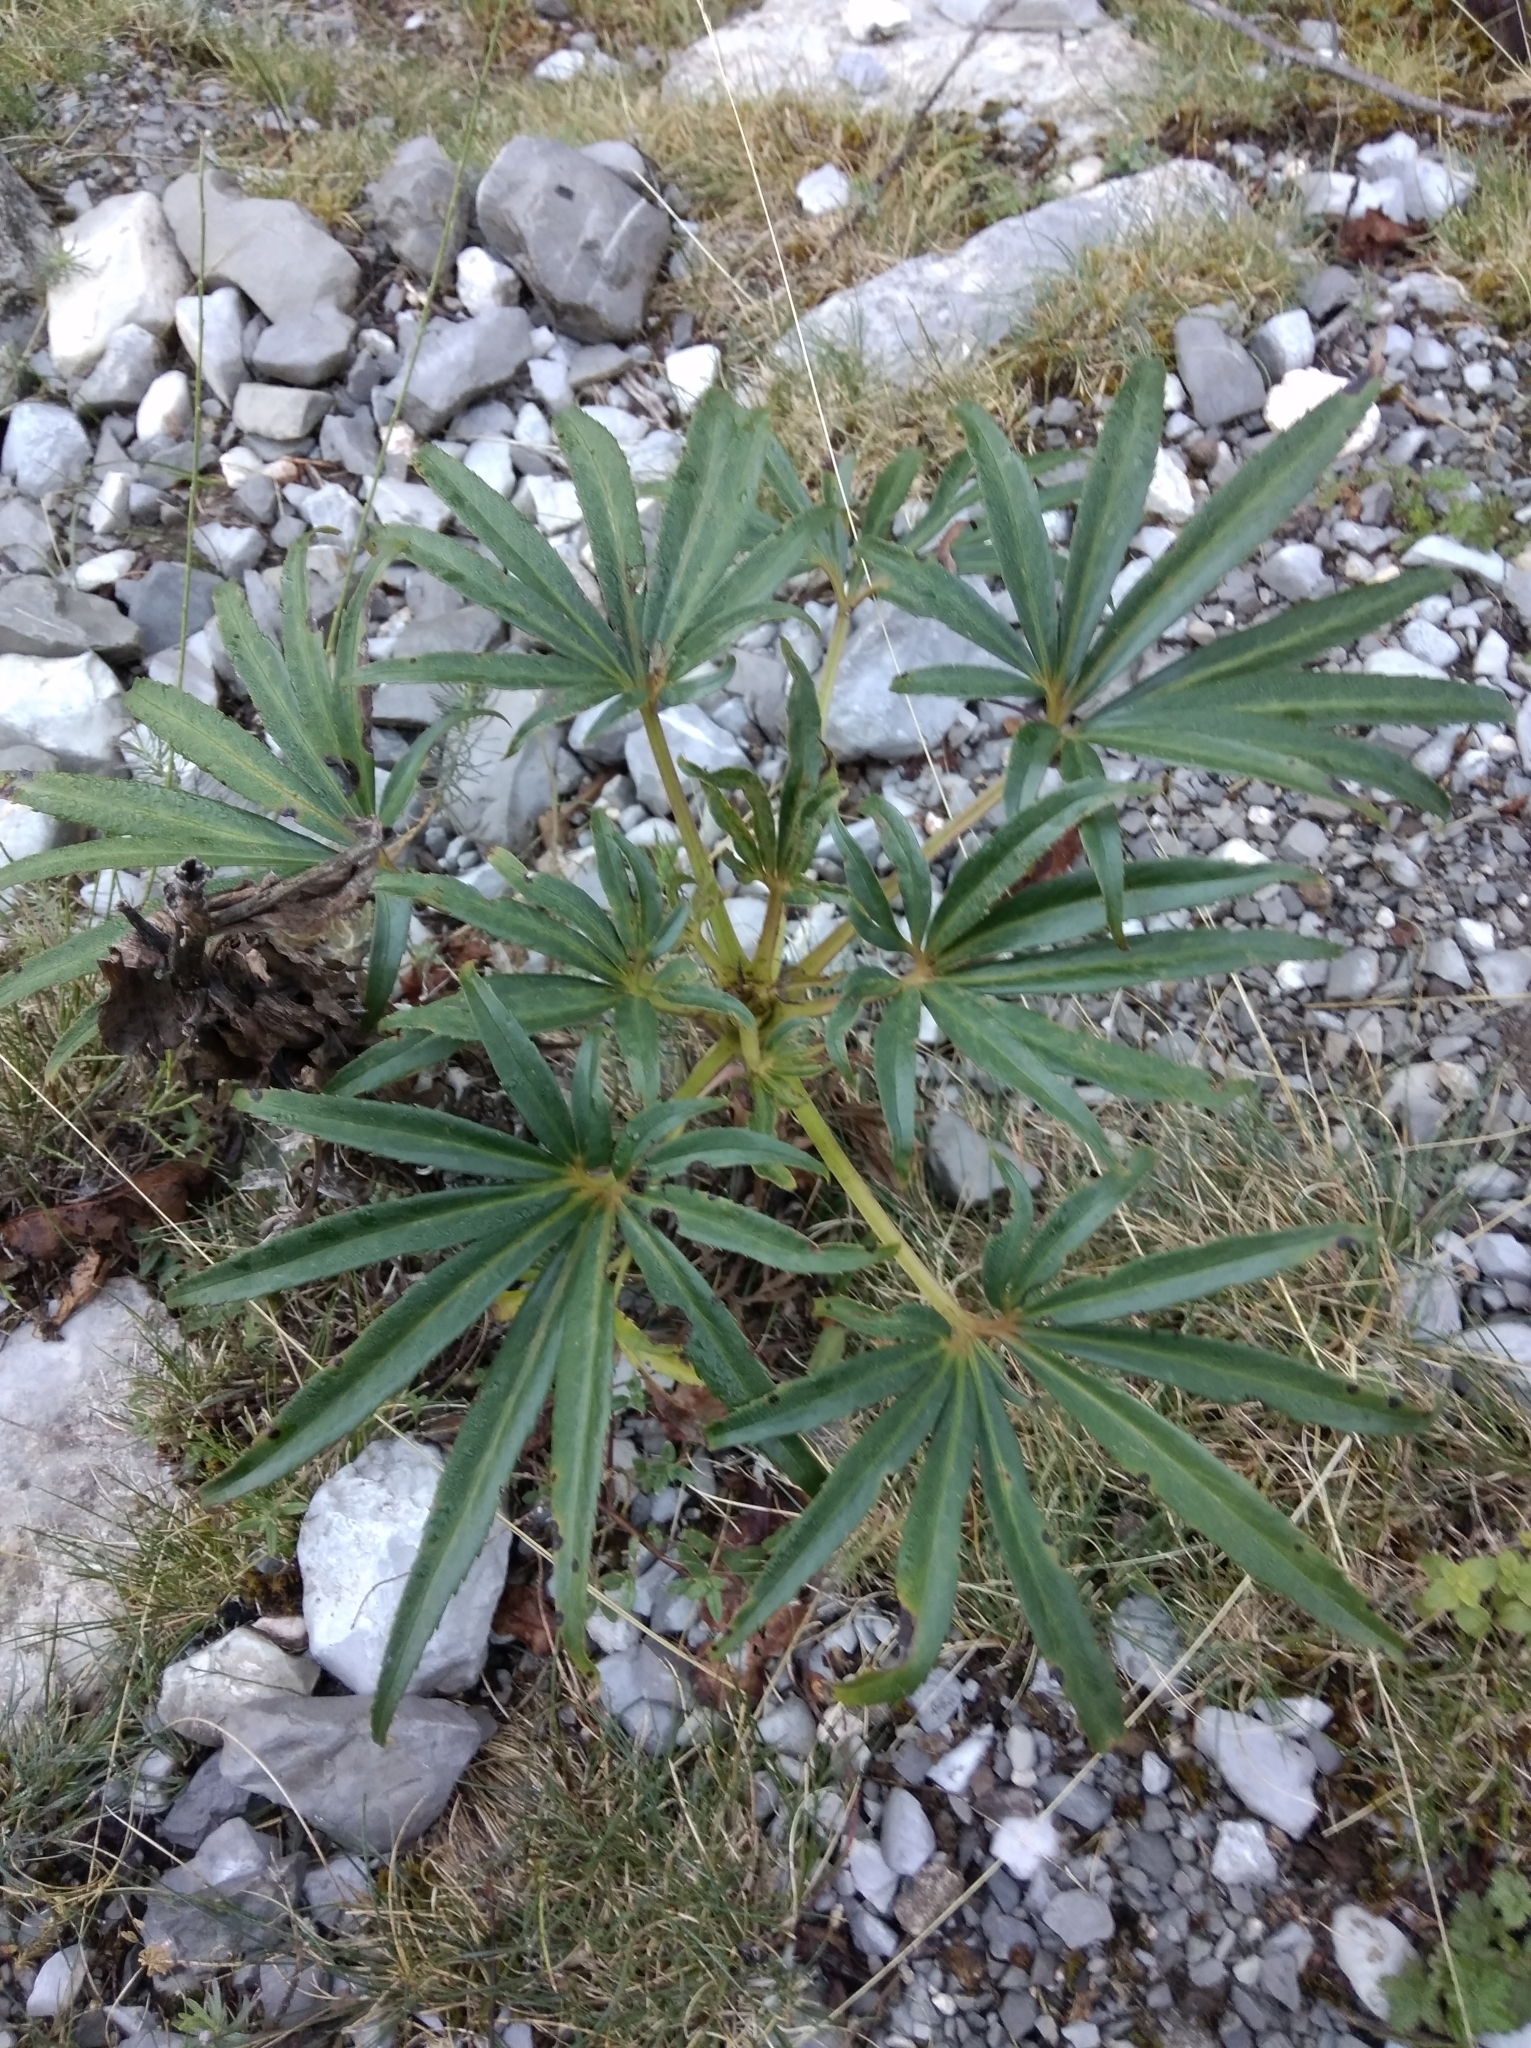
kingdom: Plantae
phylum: Tracheophyta
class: Magnoliopsida
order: Ranunculales
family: Ranunculaceae
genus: Helleborus
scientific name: Helleborus foetidus
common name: Stinking hellebore
